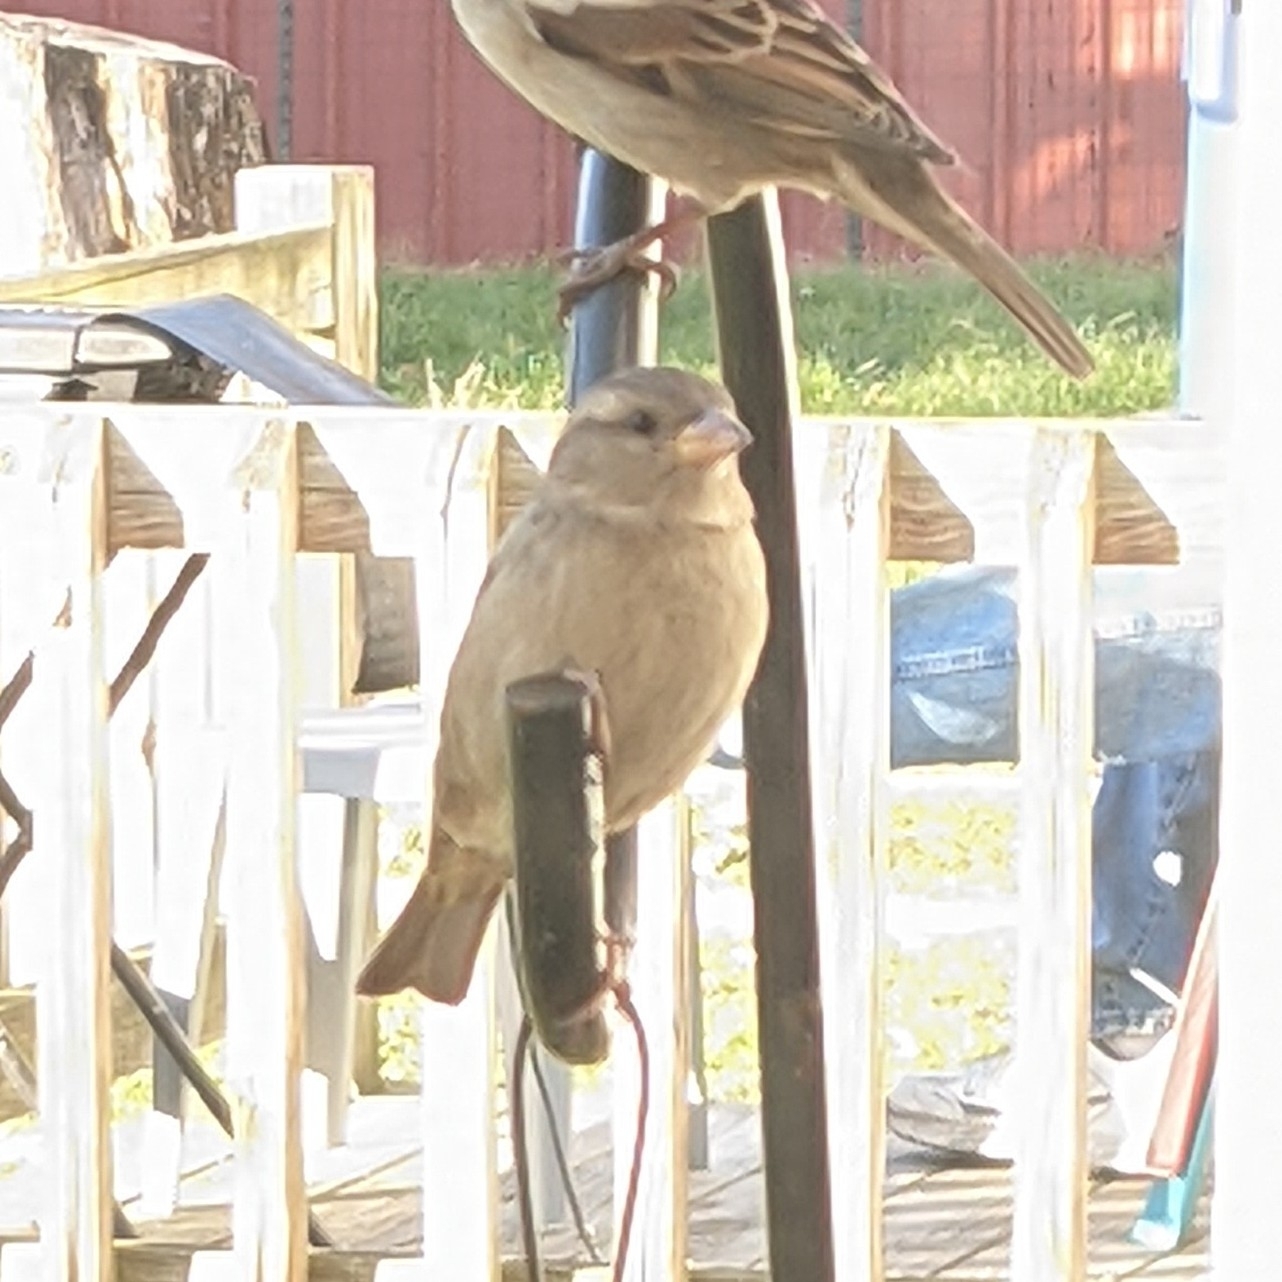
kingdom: Animalia
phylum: Chordata
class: Aves
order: Passeriformes
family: Passeridae
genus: Passer
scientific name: Passer domesticus
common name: House sparrow
